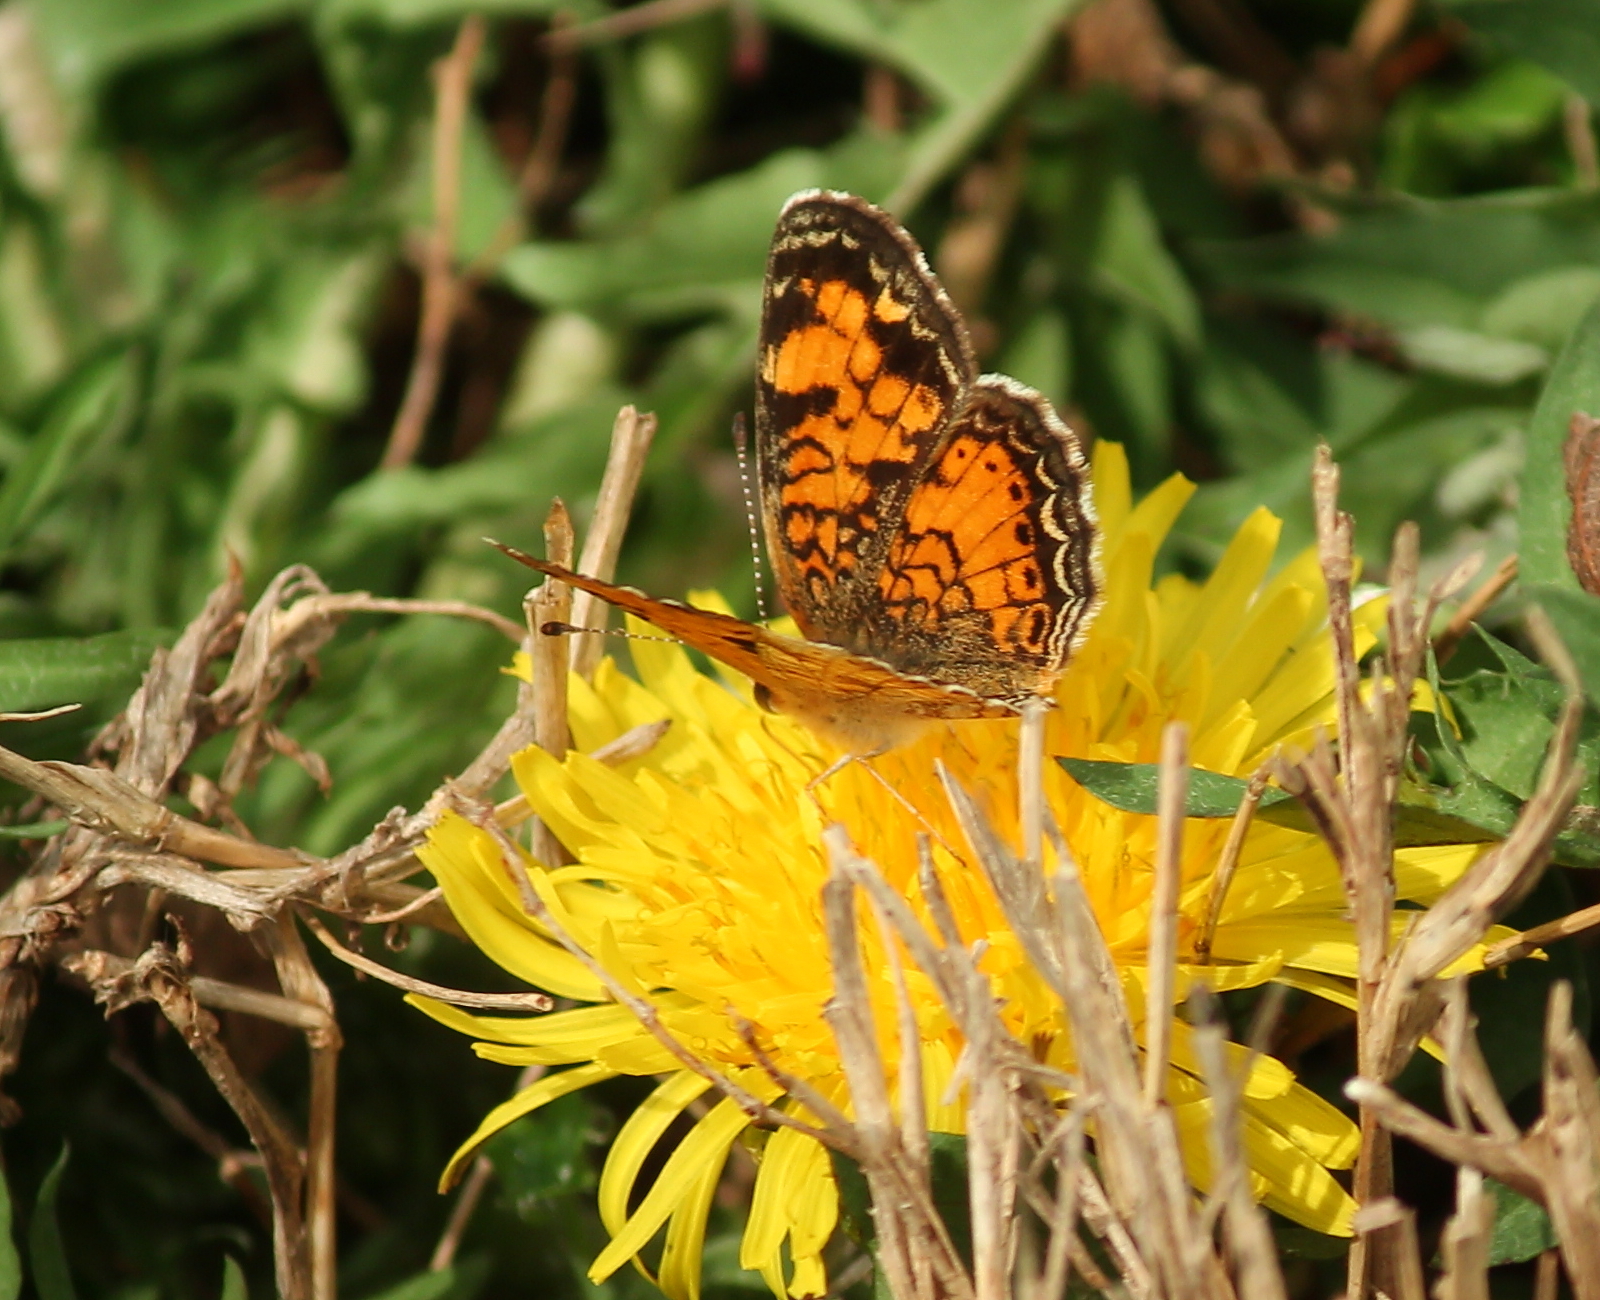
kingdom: Animalia
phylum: Arthropoda
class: Insecta
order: Lepidoptera
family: Nymphalidae
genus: Phyciodes
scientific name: Phyciodes tharos
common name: Pearl crescent
